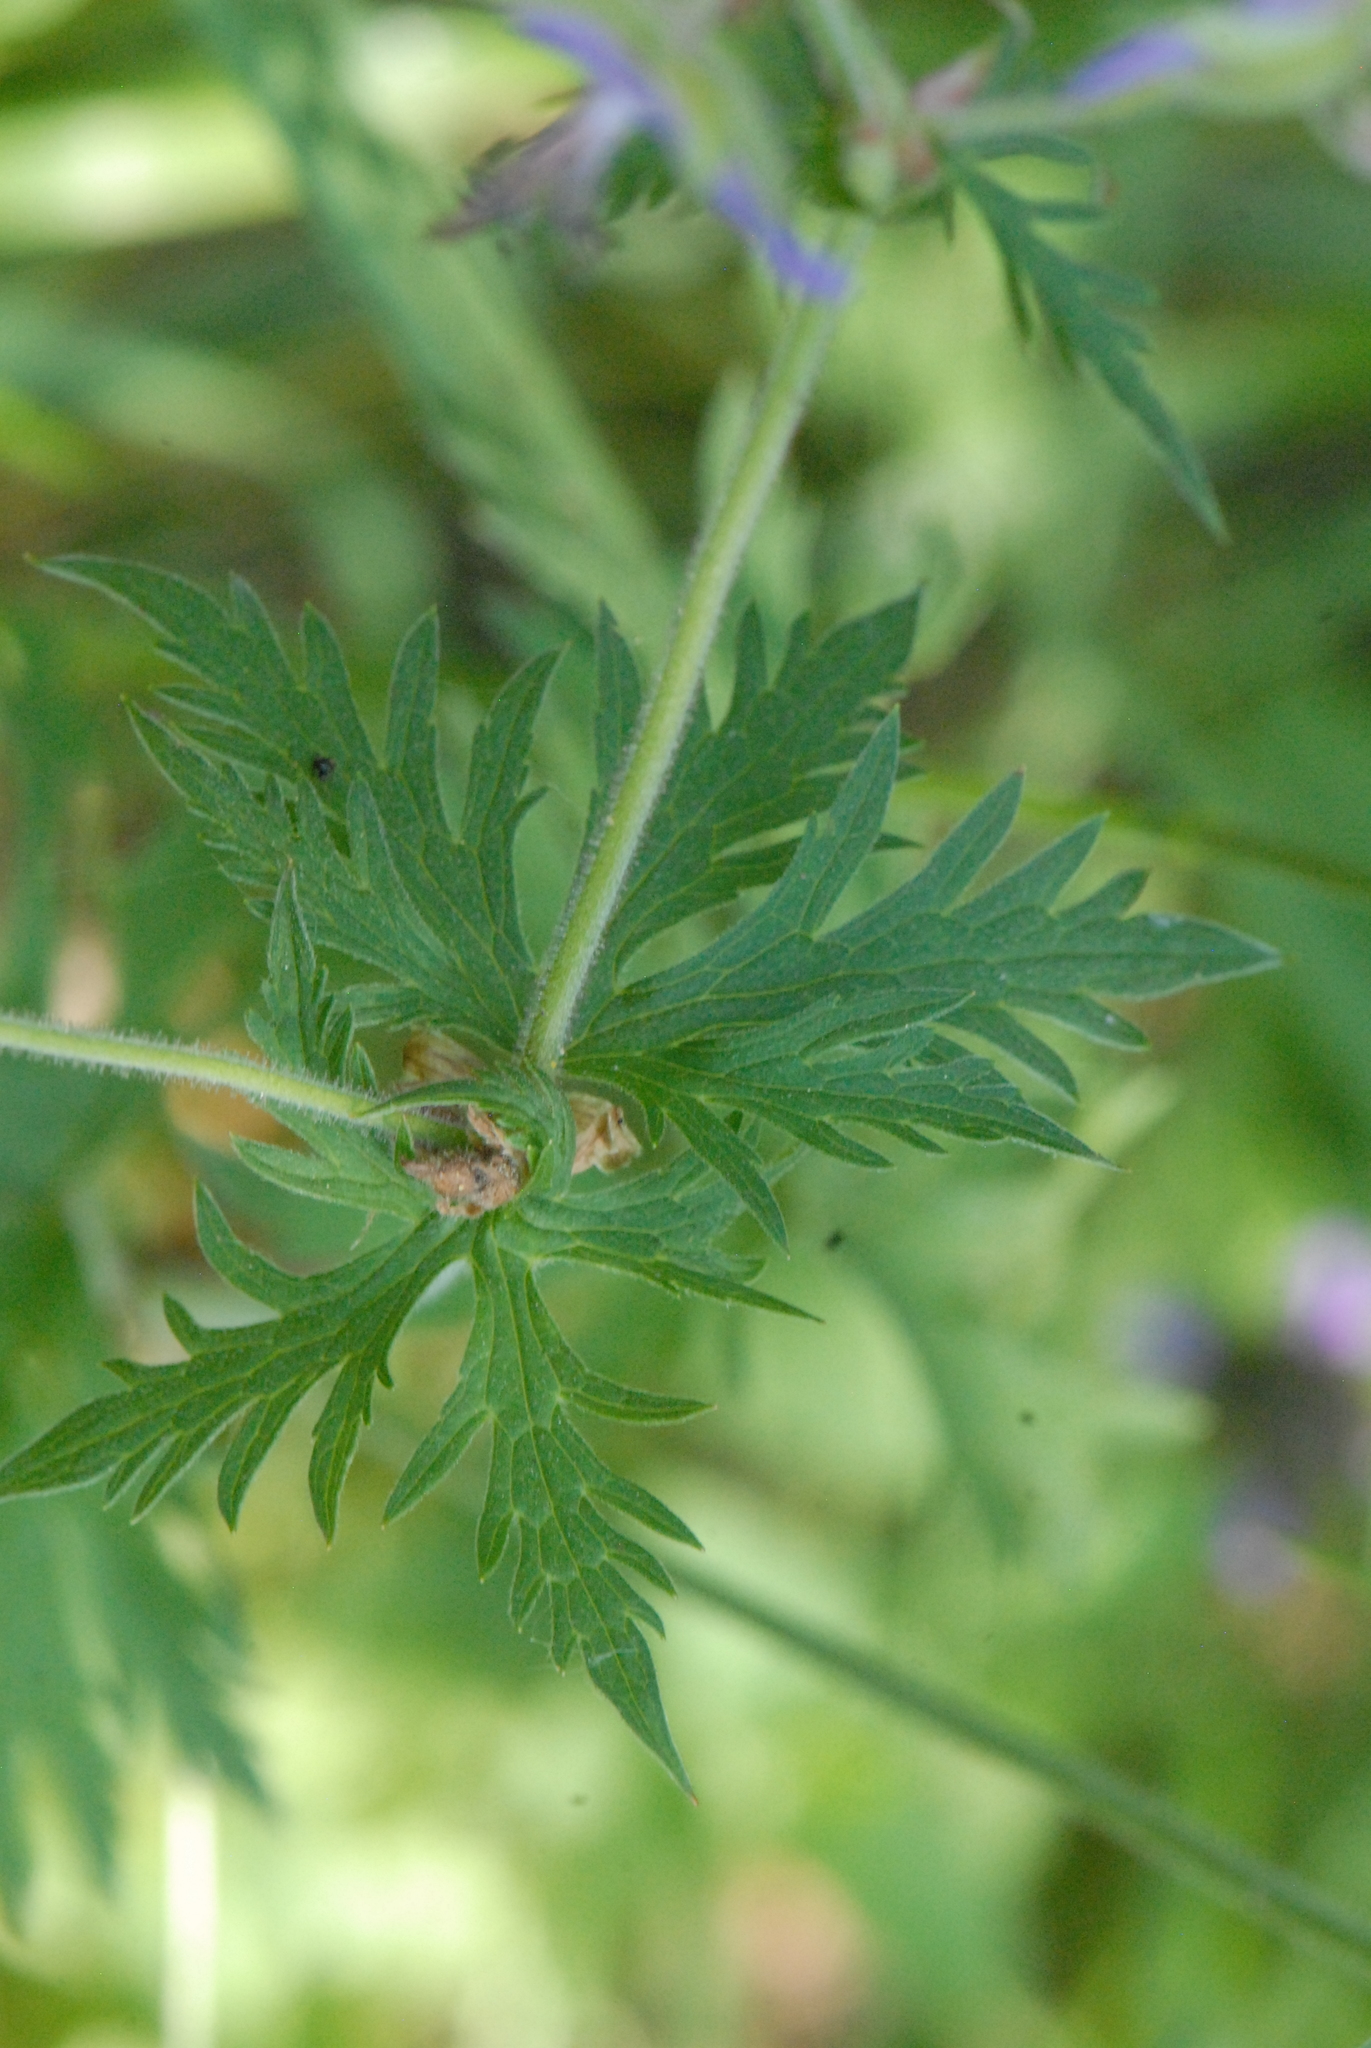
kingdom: Plantae
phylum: Tracheophyta
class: Magnoliopsida
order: Geraniales
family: Geraniaceae
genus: Geranium
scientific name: Geranium pratense
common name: Meadow crane's-bill
